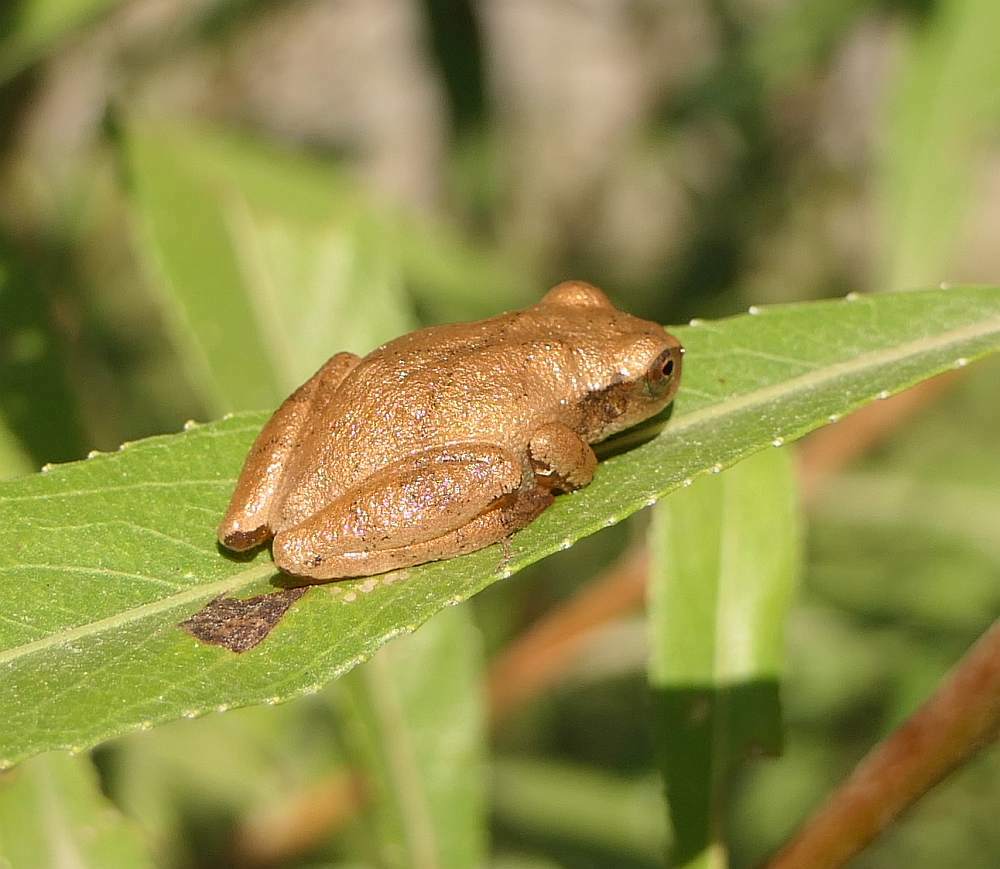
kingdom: Animalia
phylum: Chordata
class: Amphibia
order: Anura
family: Hylidae
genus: Pseudacris
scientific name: Pseudacris crucifer
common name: Spring peeper
